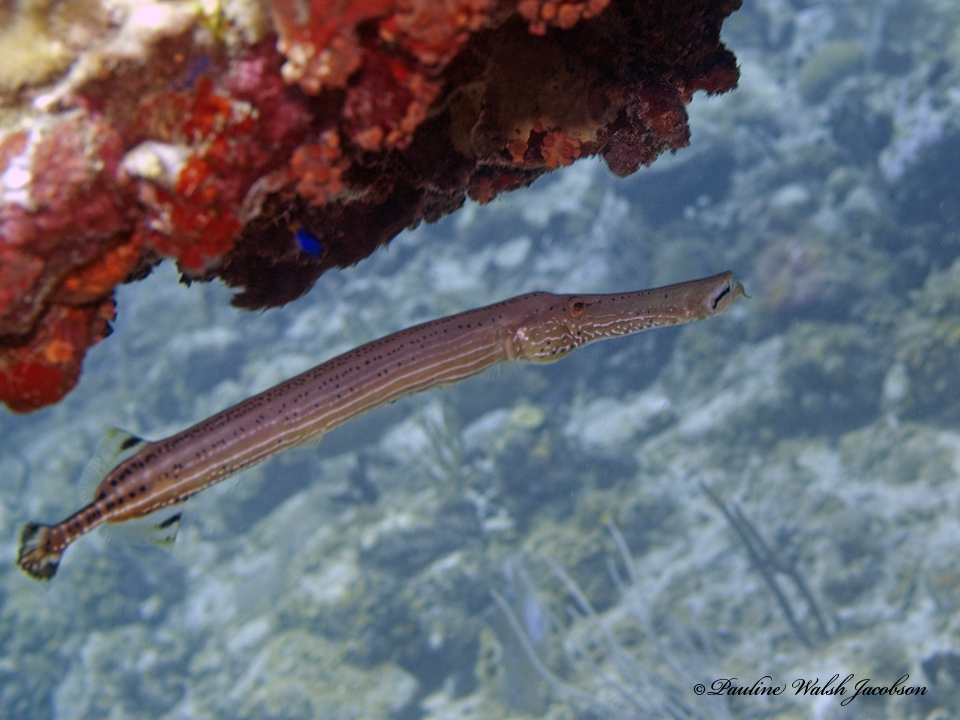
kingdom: Animalia
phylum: Chordata
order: Syngnathiformes
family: Aulostomidae
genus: Aulostomus
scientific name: Aulostomus maculatus
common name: West atlantic trumpetfish
